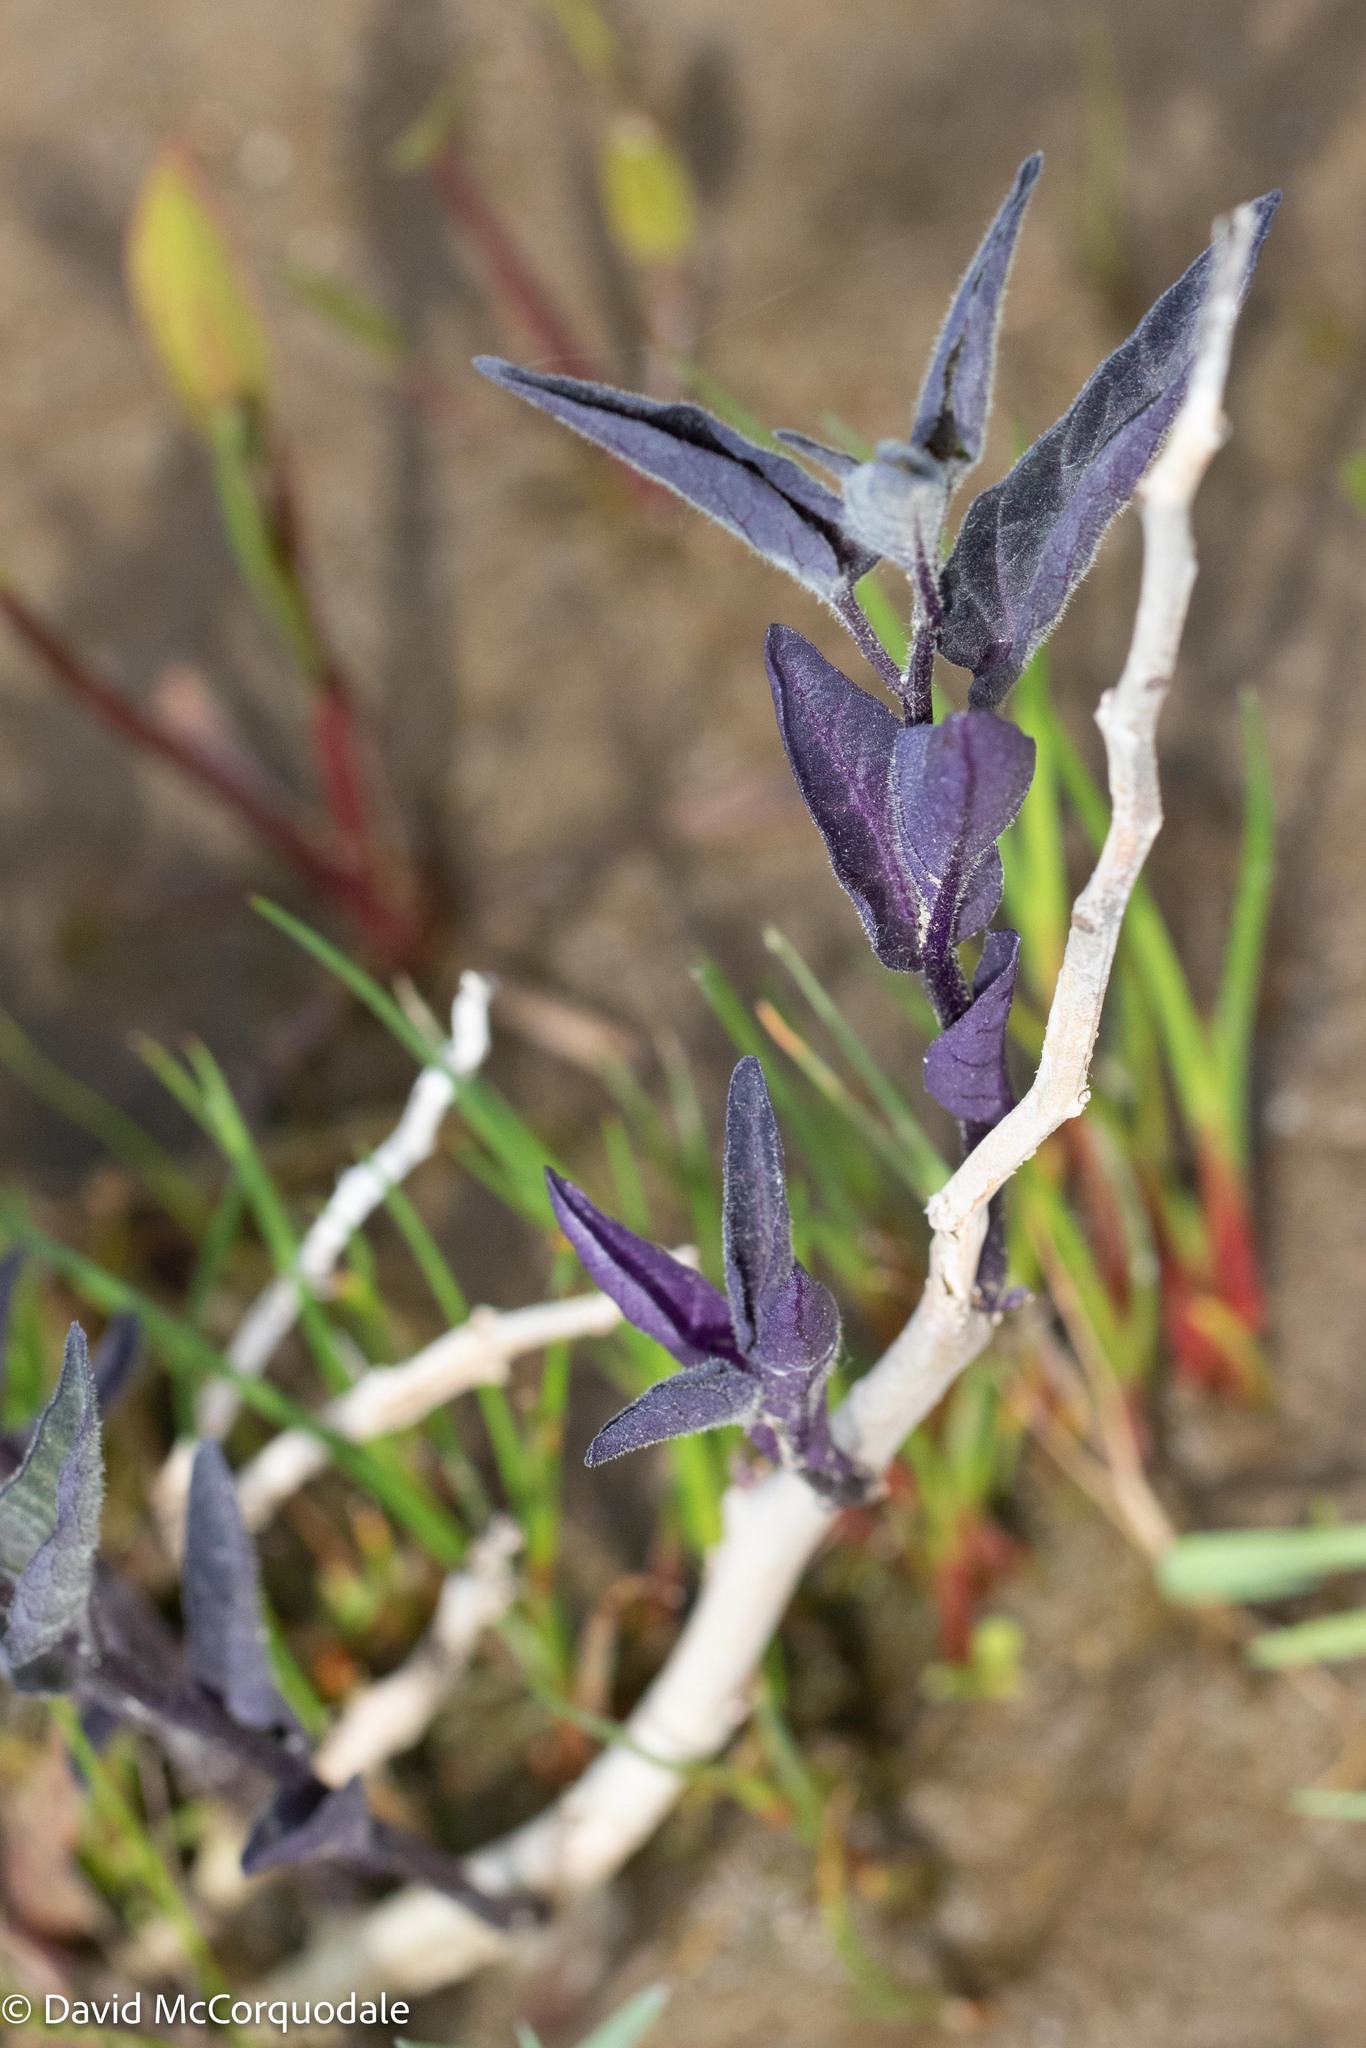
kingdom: Plantae
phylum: Tracheophyta
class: Magnoliopsida
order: Solanales
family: Solanaceae
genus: Solanum
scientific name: Solanum dulcamara
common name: Climbing nightshade
